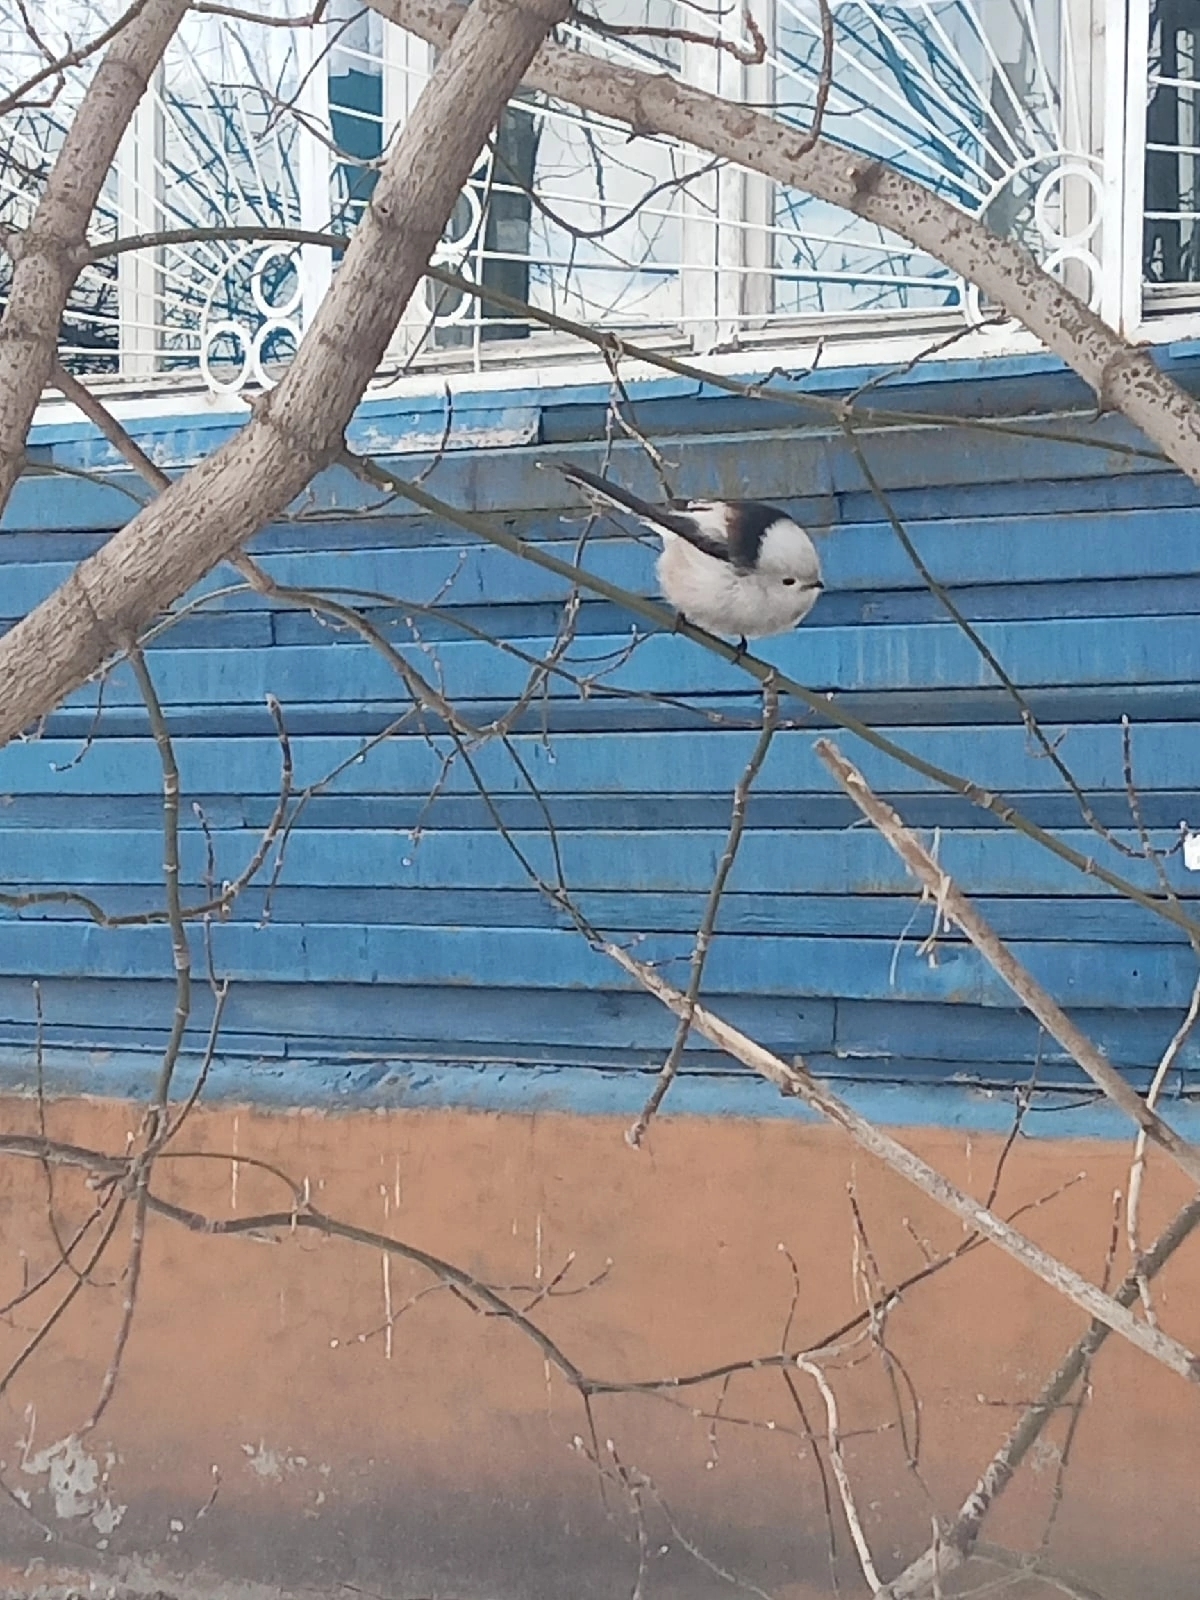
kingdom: Animalia
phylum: Chordata
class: Aves
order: Passeriformes
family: Aegithalidae
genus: Aegithalos
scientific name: Aegithalos caudatus
